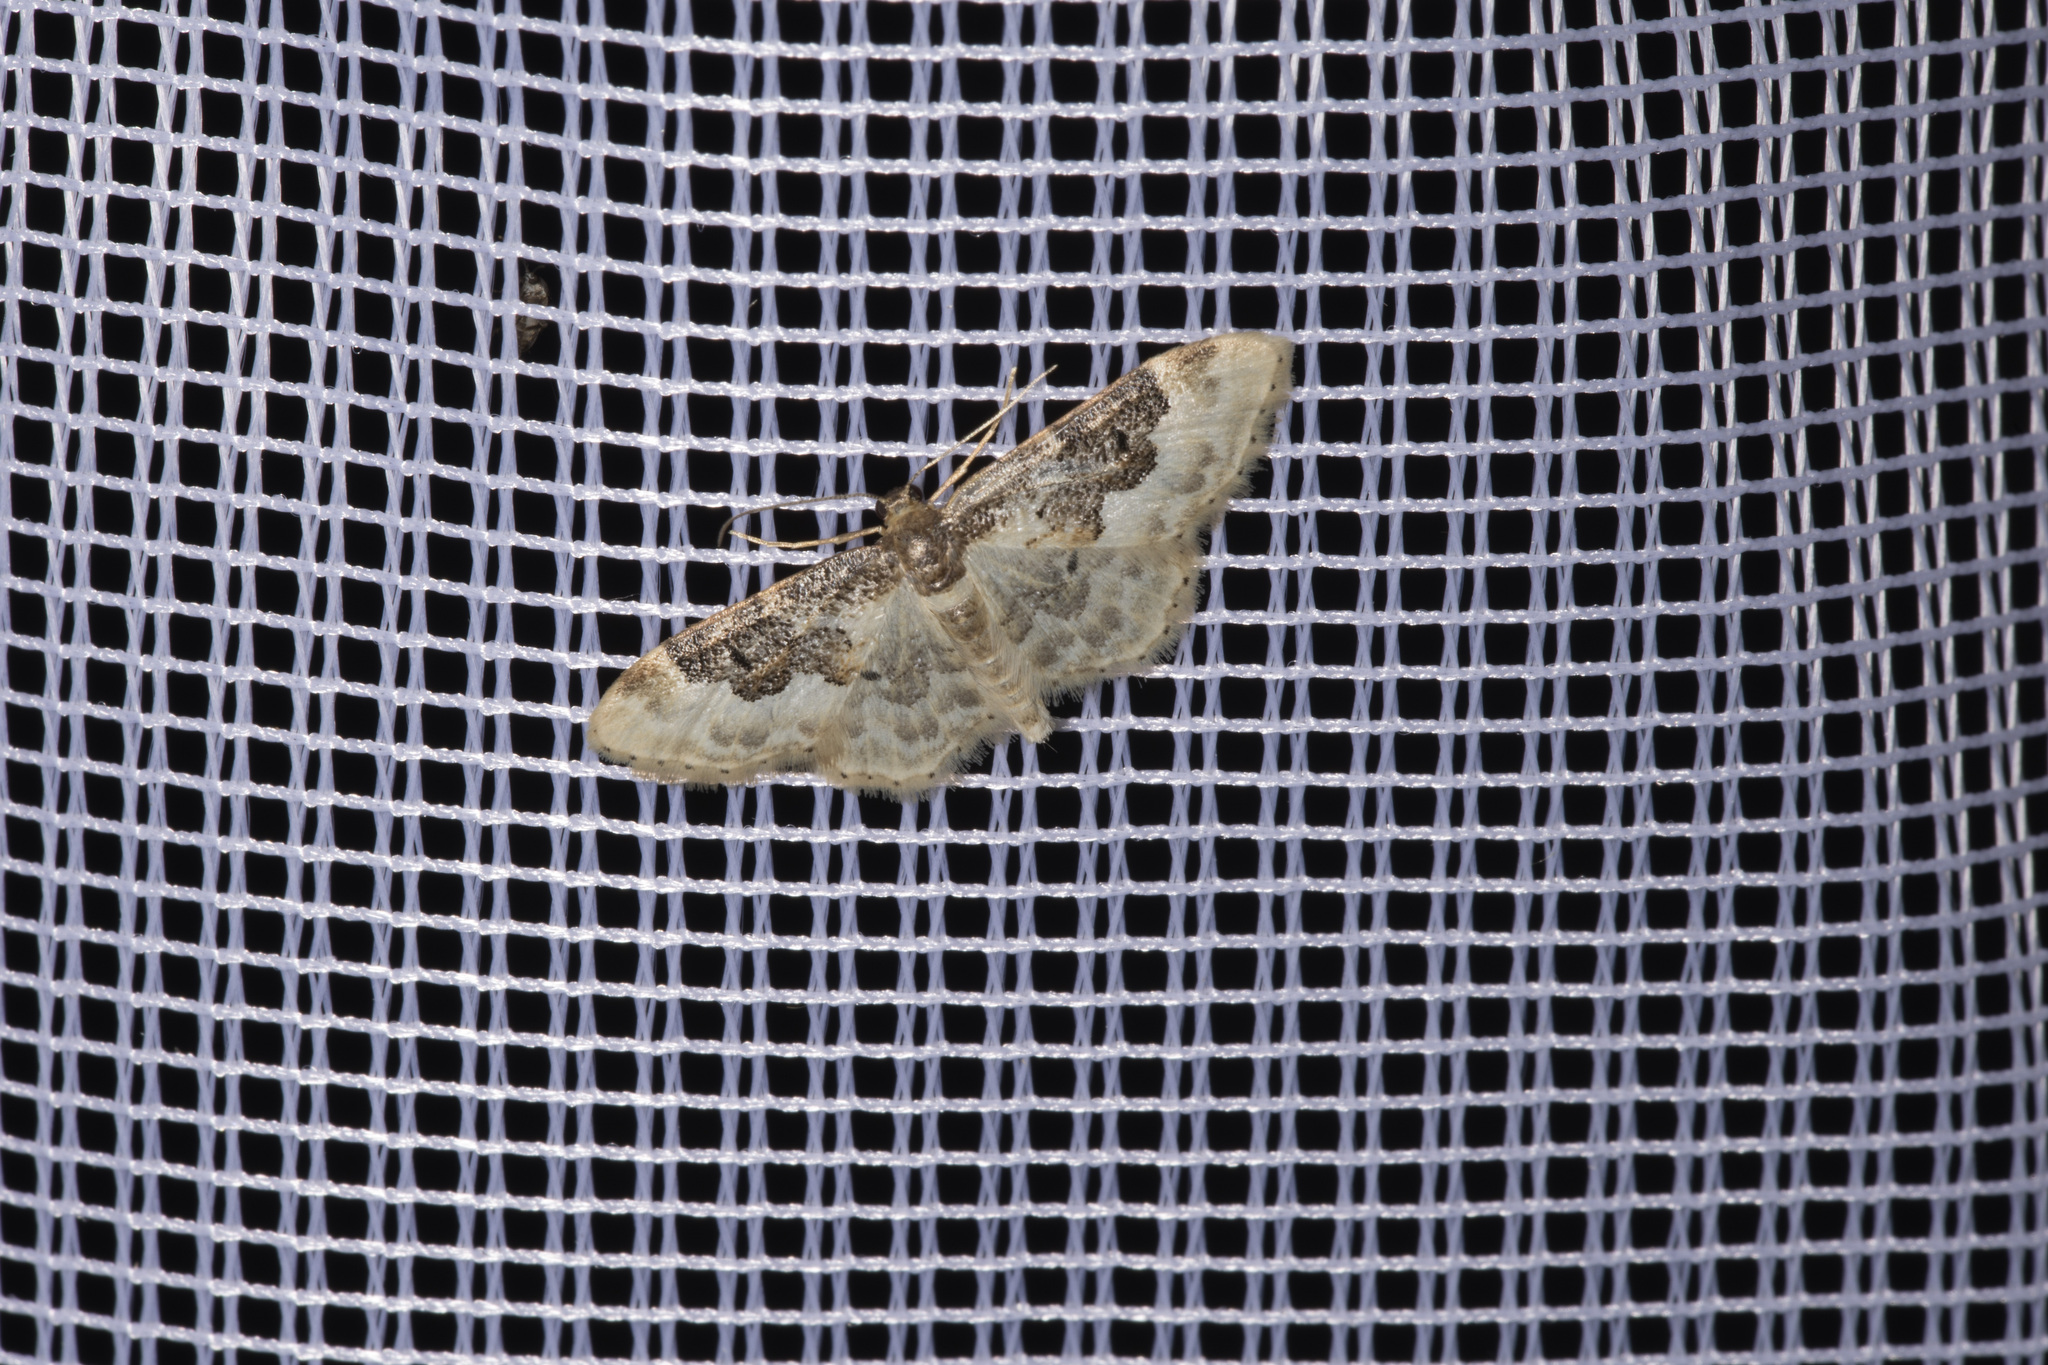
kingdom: Animalia
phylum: Arthropoda
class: Insecta
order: Lepidoptera
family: Geometridae
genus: Idaea
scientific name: Idaea rusticata
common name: Least carpet
